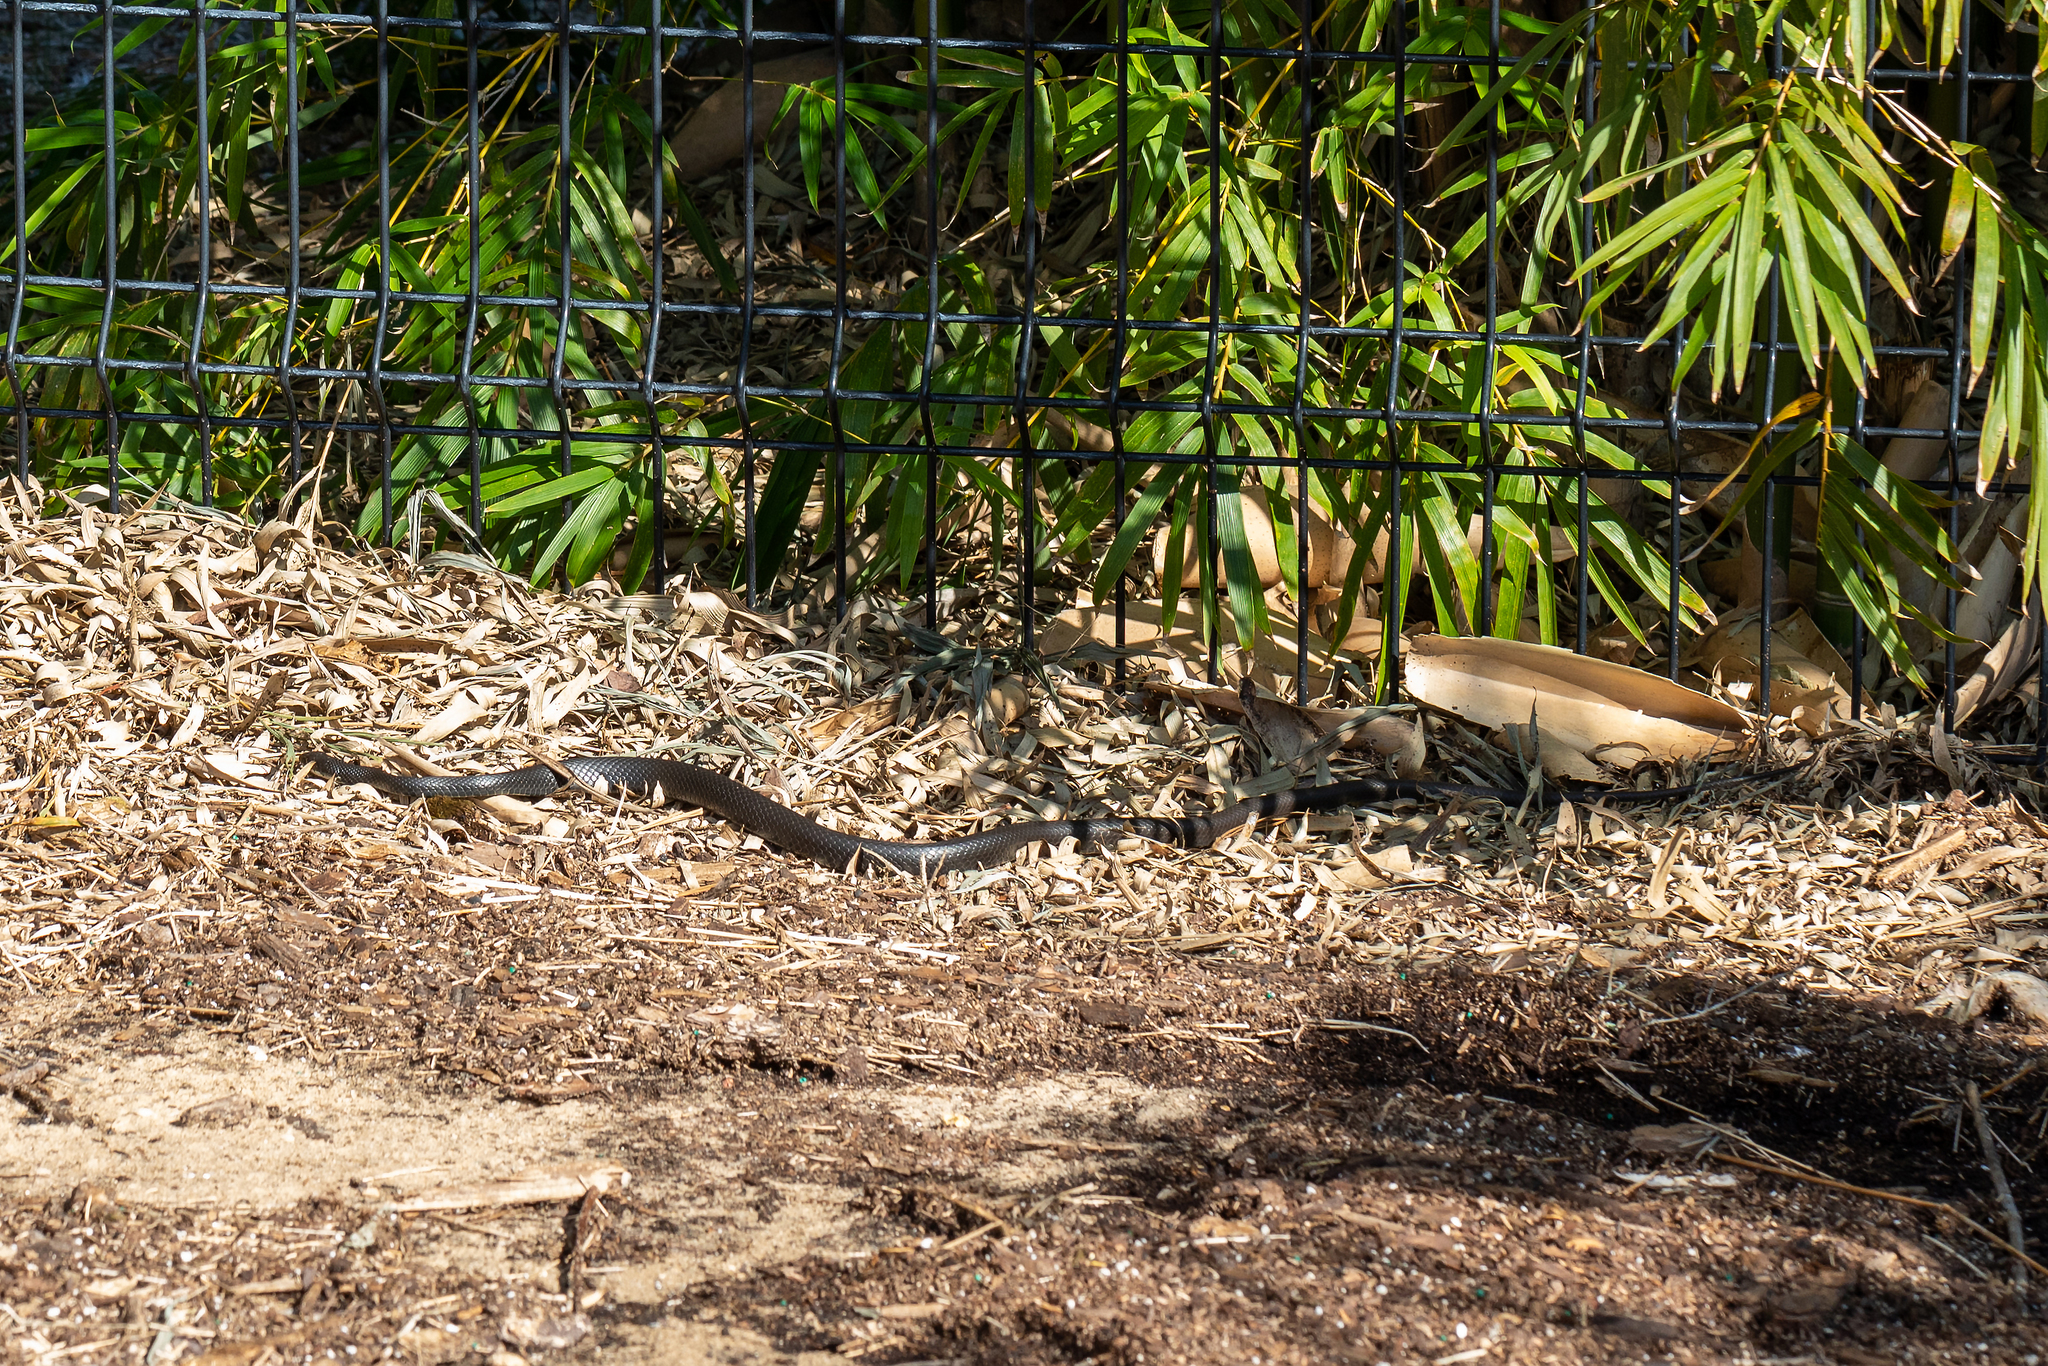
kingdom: Animalia
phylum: Chordata
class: Squamata
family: Colubridae
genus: Coluber
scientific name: Coluber constrictor
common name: Eastern racer
